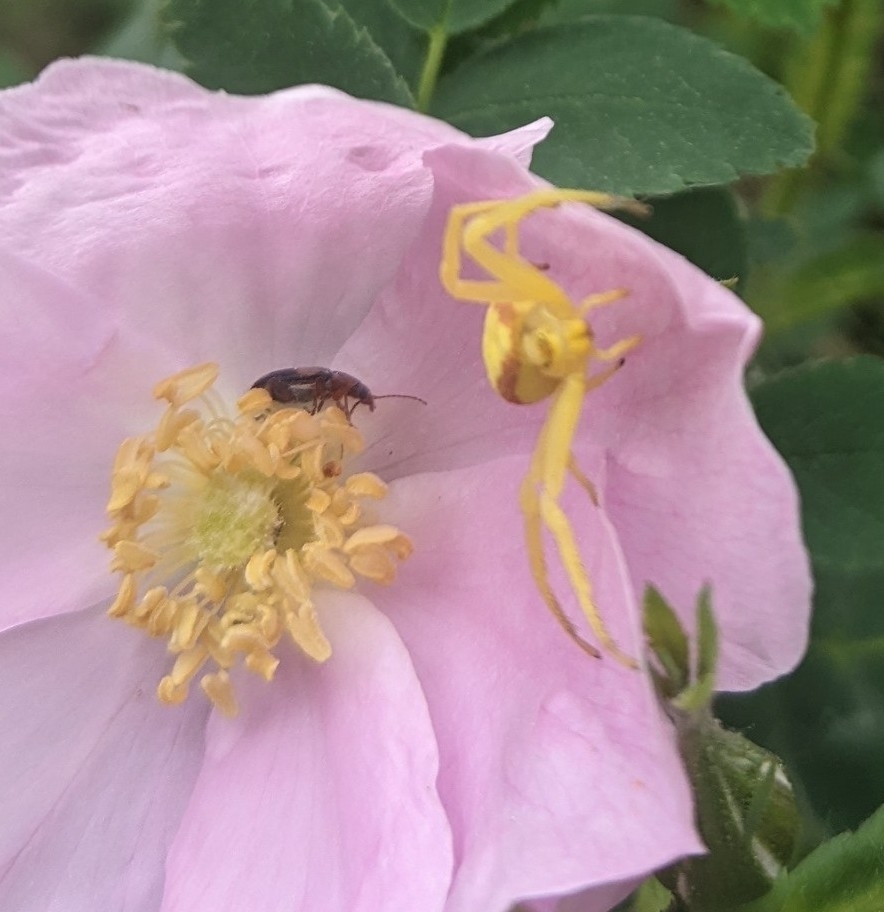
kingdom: Animalia
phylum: Arthropoda
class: Arachnida
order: Araneae
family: Thomisidae
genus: Misumena
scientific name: Misumena vatia
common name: Goldenrod crab spider
